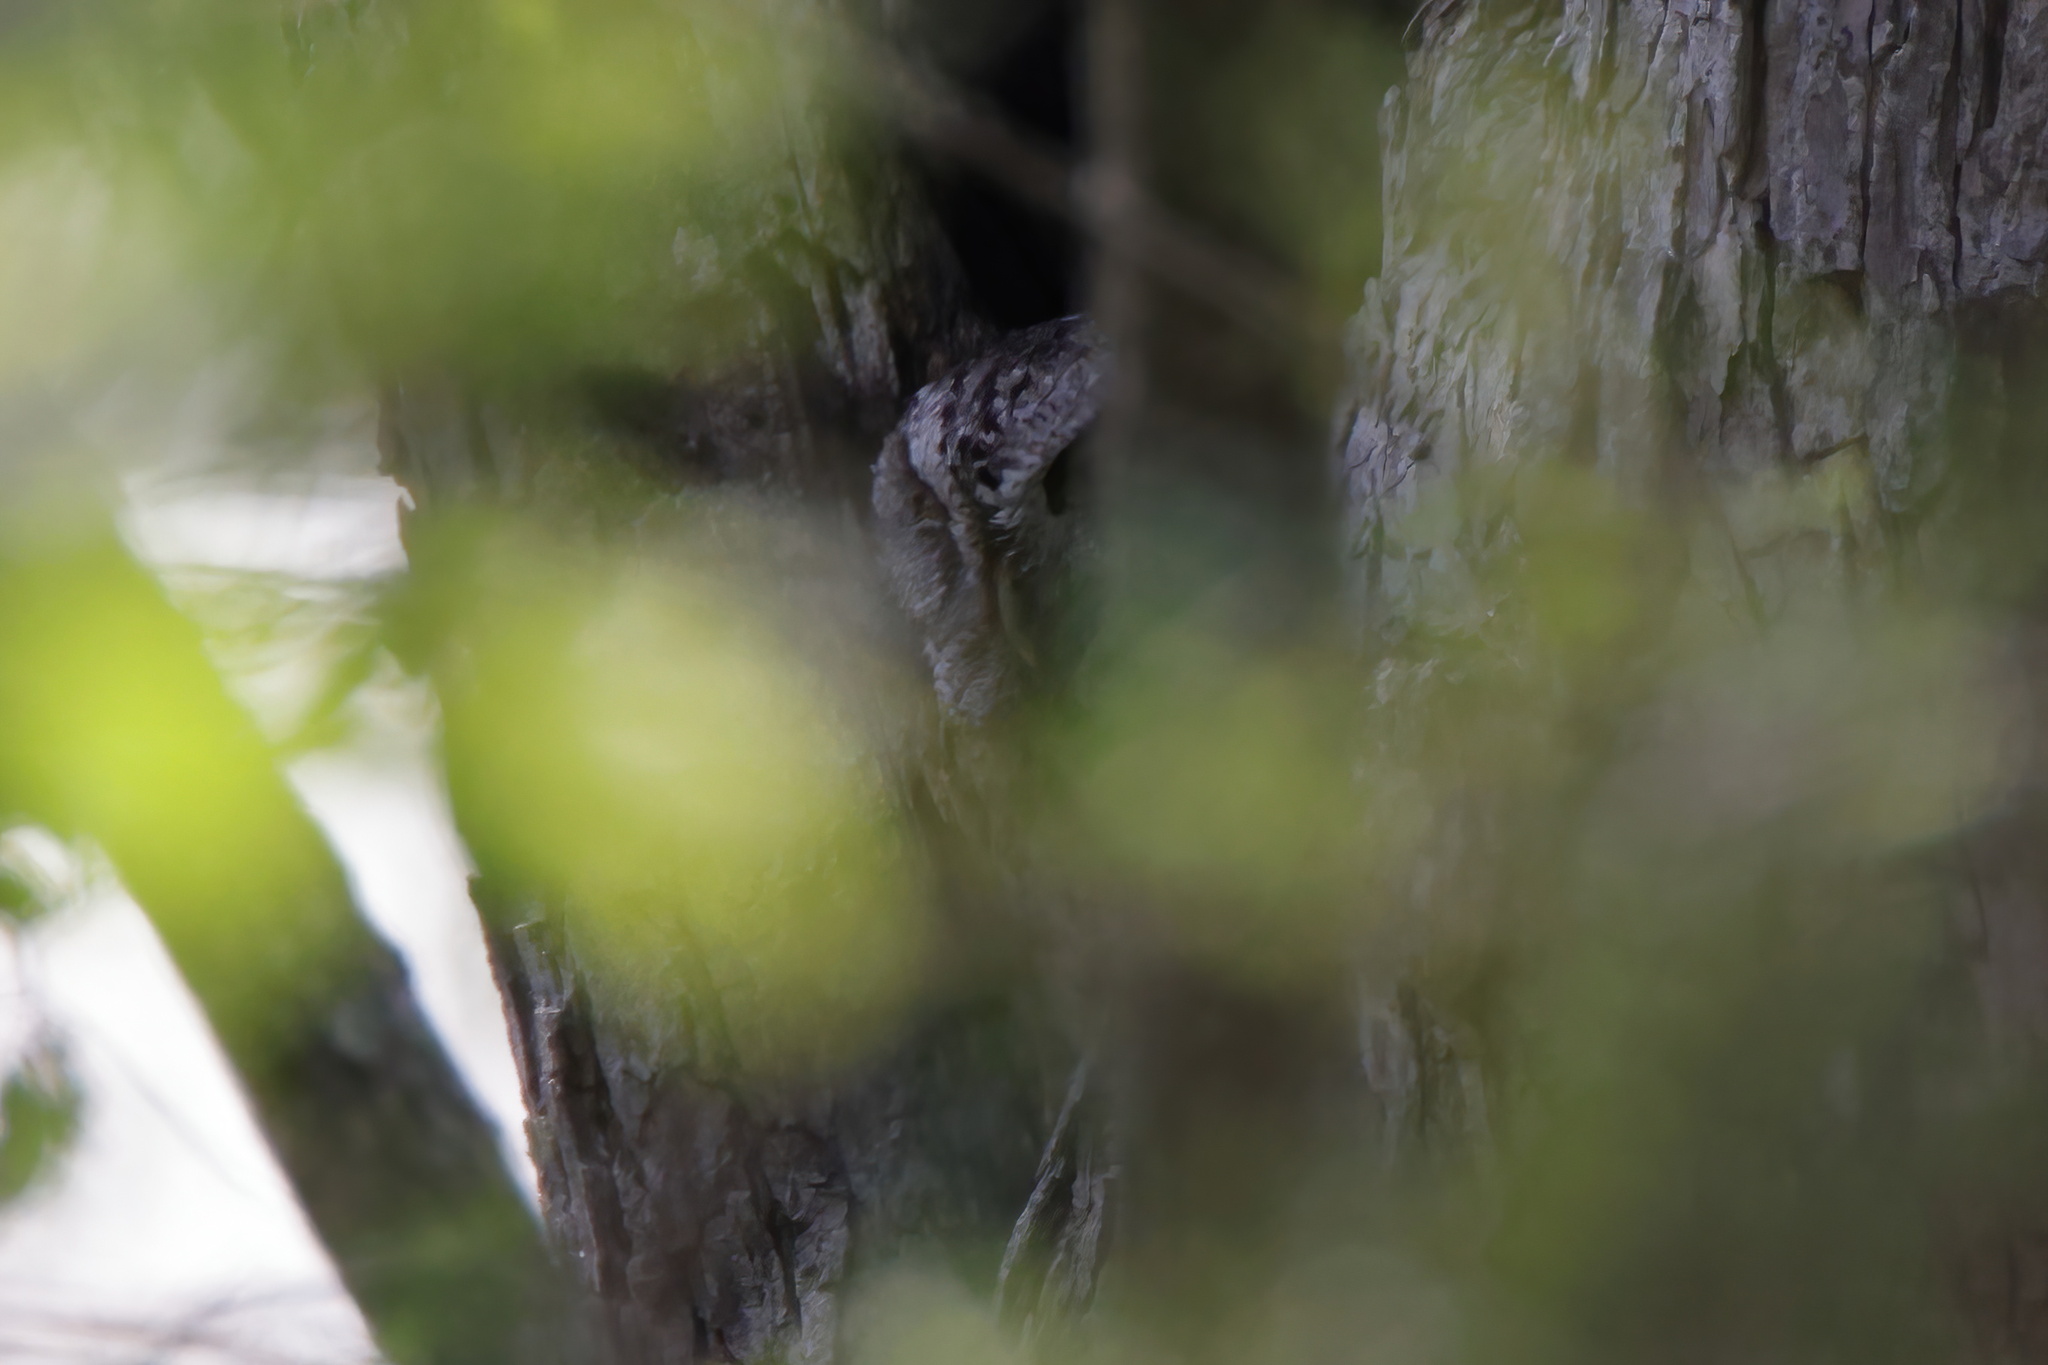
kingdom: Animalia
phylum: Chordata
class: Aves
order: Strigiformes
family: Strigidae
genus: Megascops
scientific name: Megascops asio
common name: Eastern screech-owl
